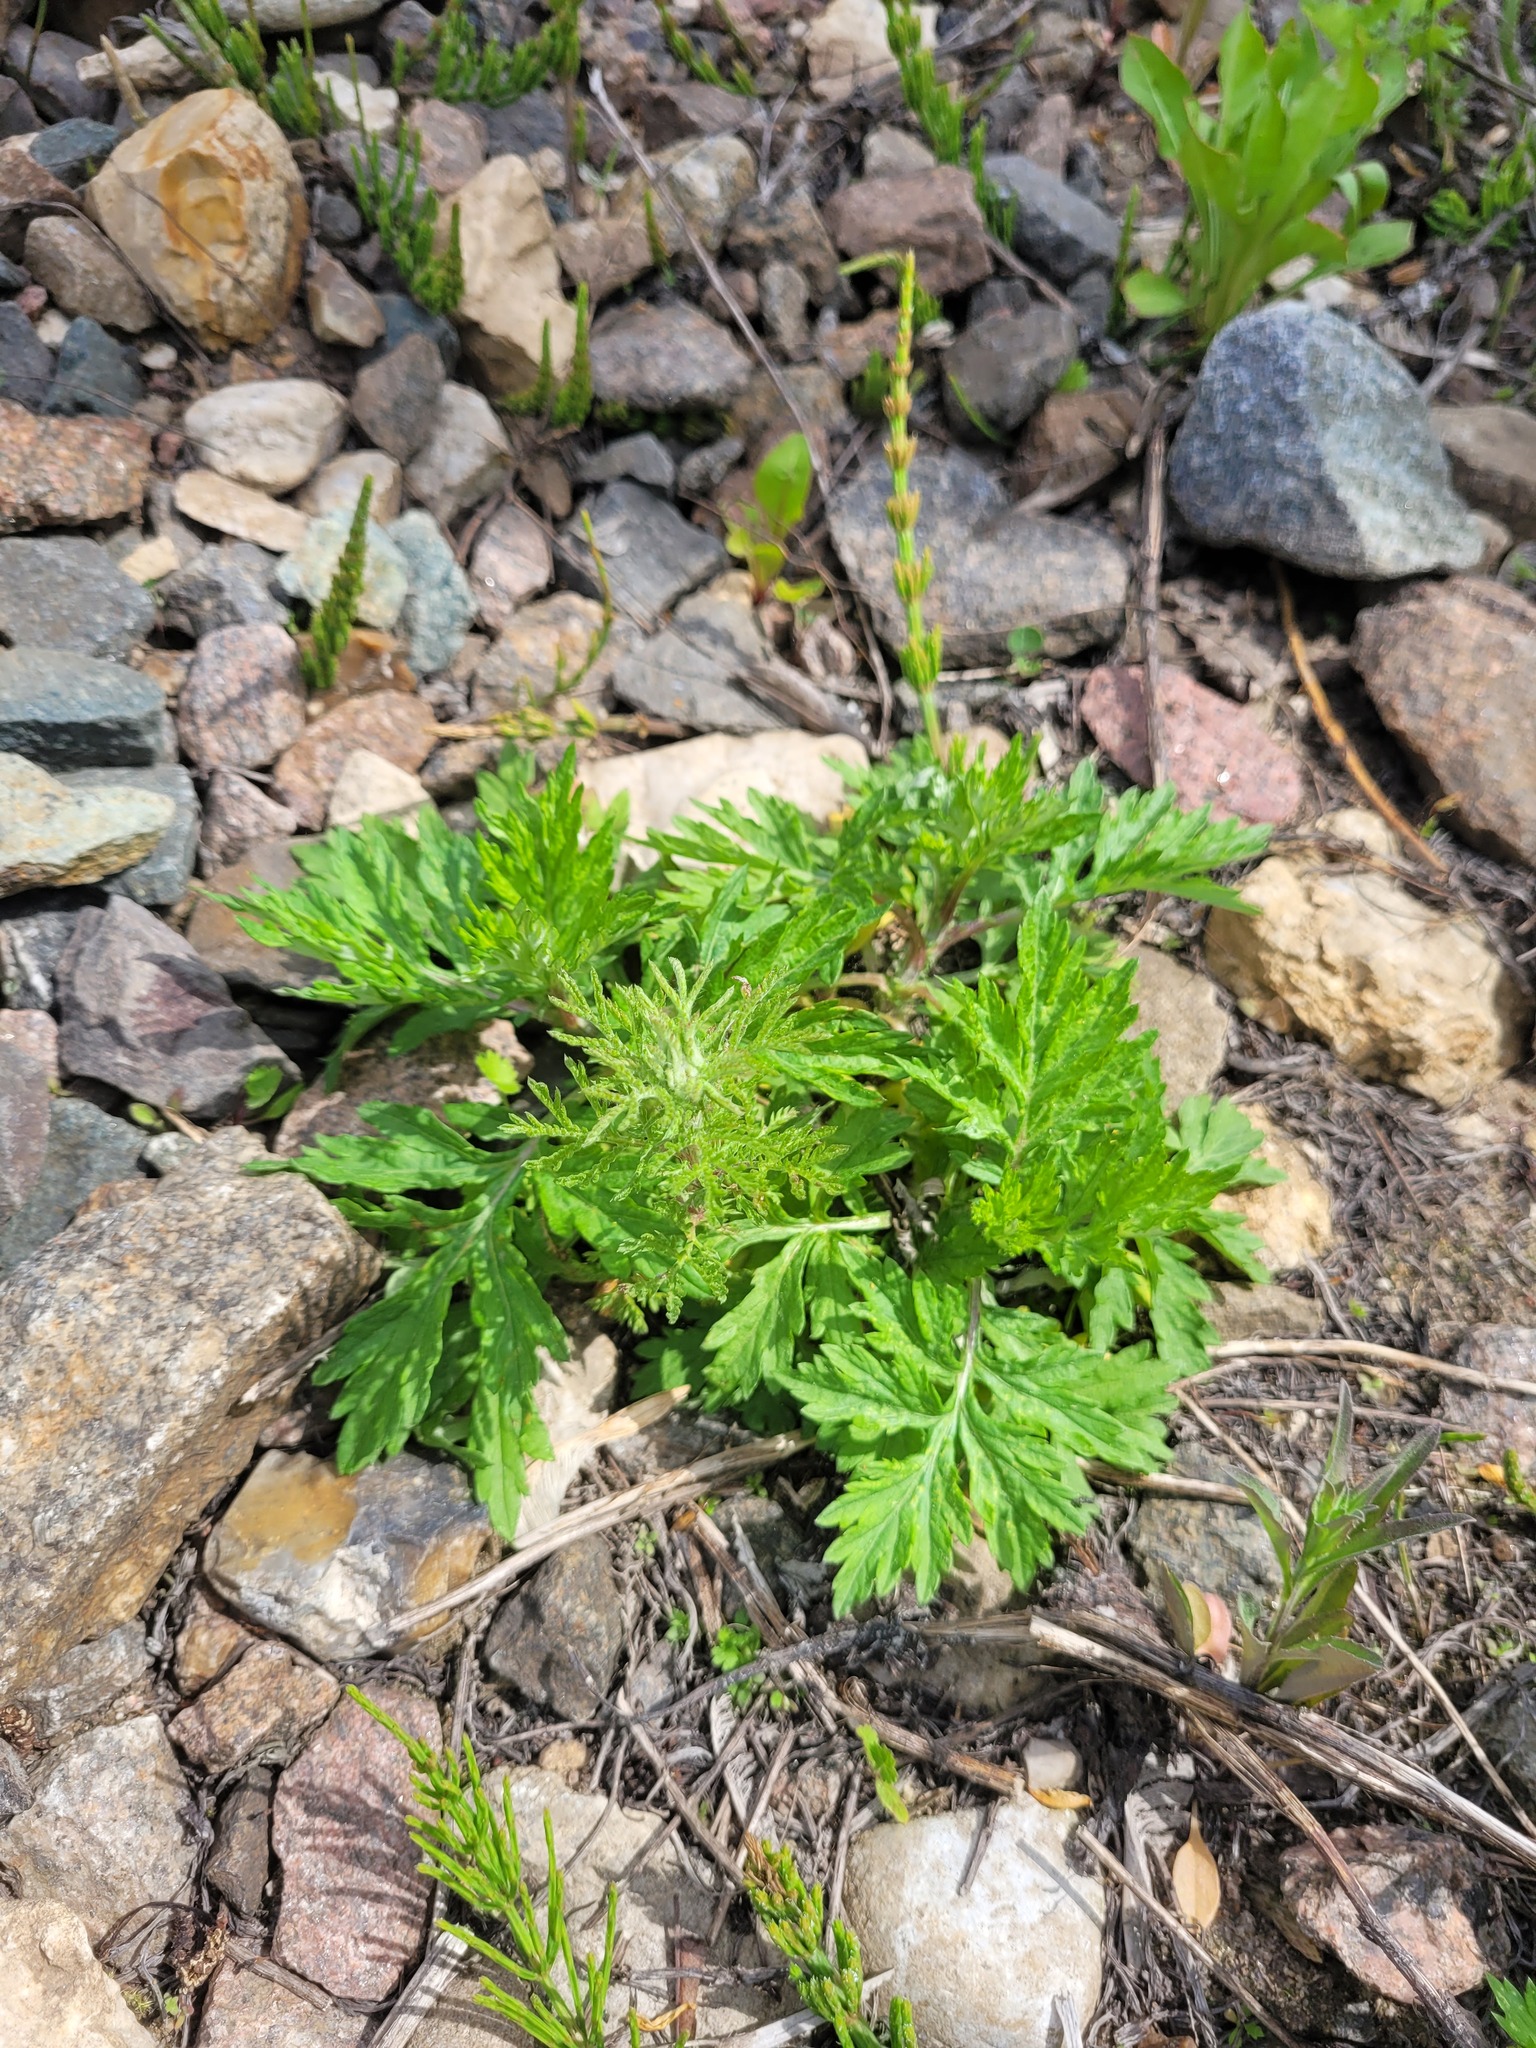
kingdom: Plantae
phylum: Tracheophyta
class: Magnoliopsida
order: Asterales
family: Asteraceae
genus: Artemisia
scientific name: Artemisia vulgaris
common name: Mugwort
